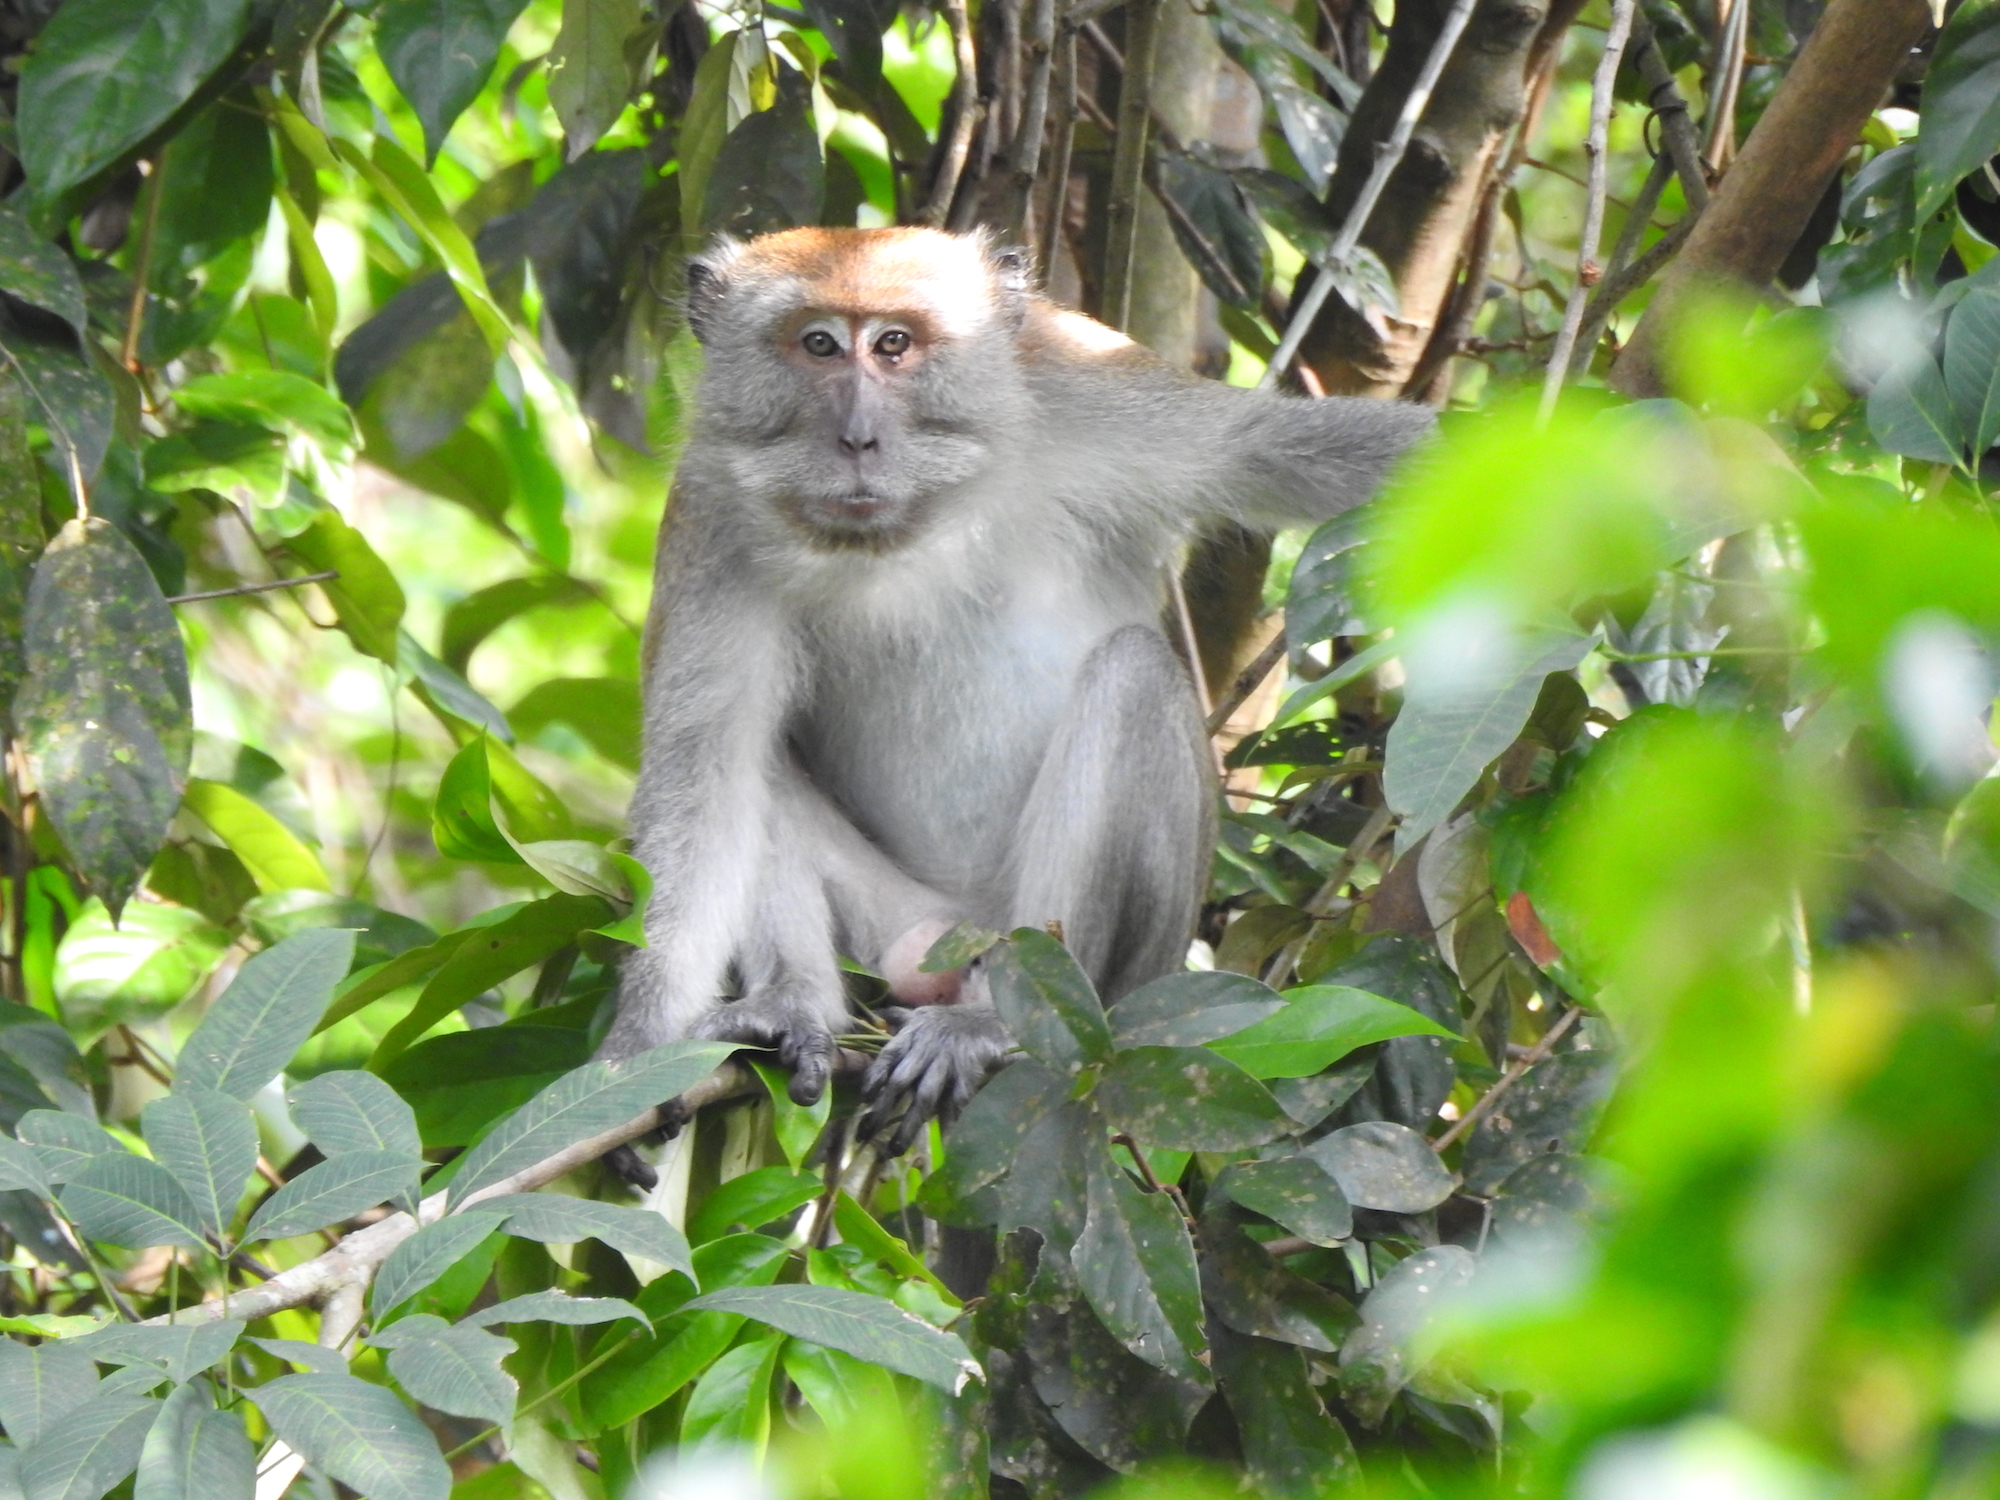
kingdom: Animalia
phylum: Chordata
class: Mammalia
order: Primates
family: Cercopithecidae
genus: Macaca
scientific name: Macaca fascicularis
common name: Crab-eating macaque
